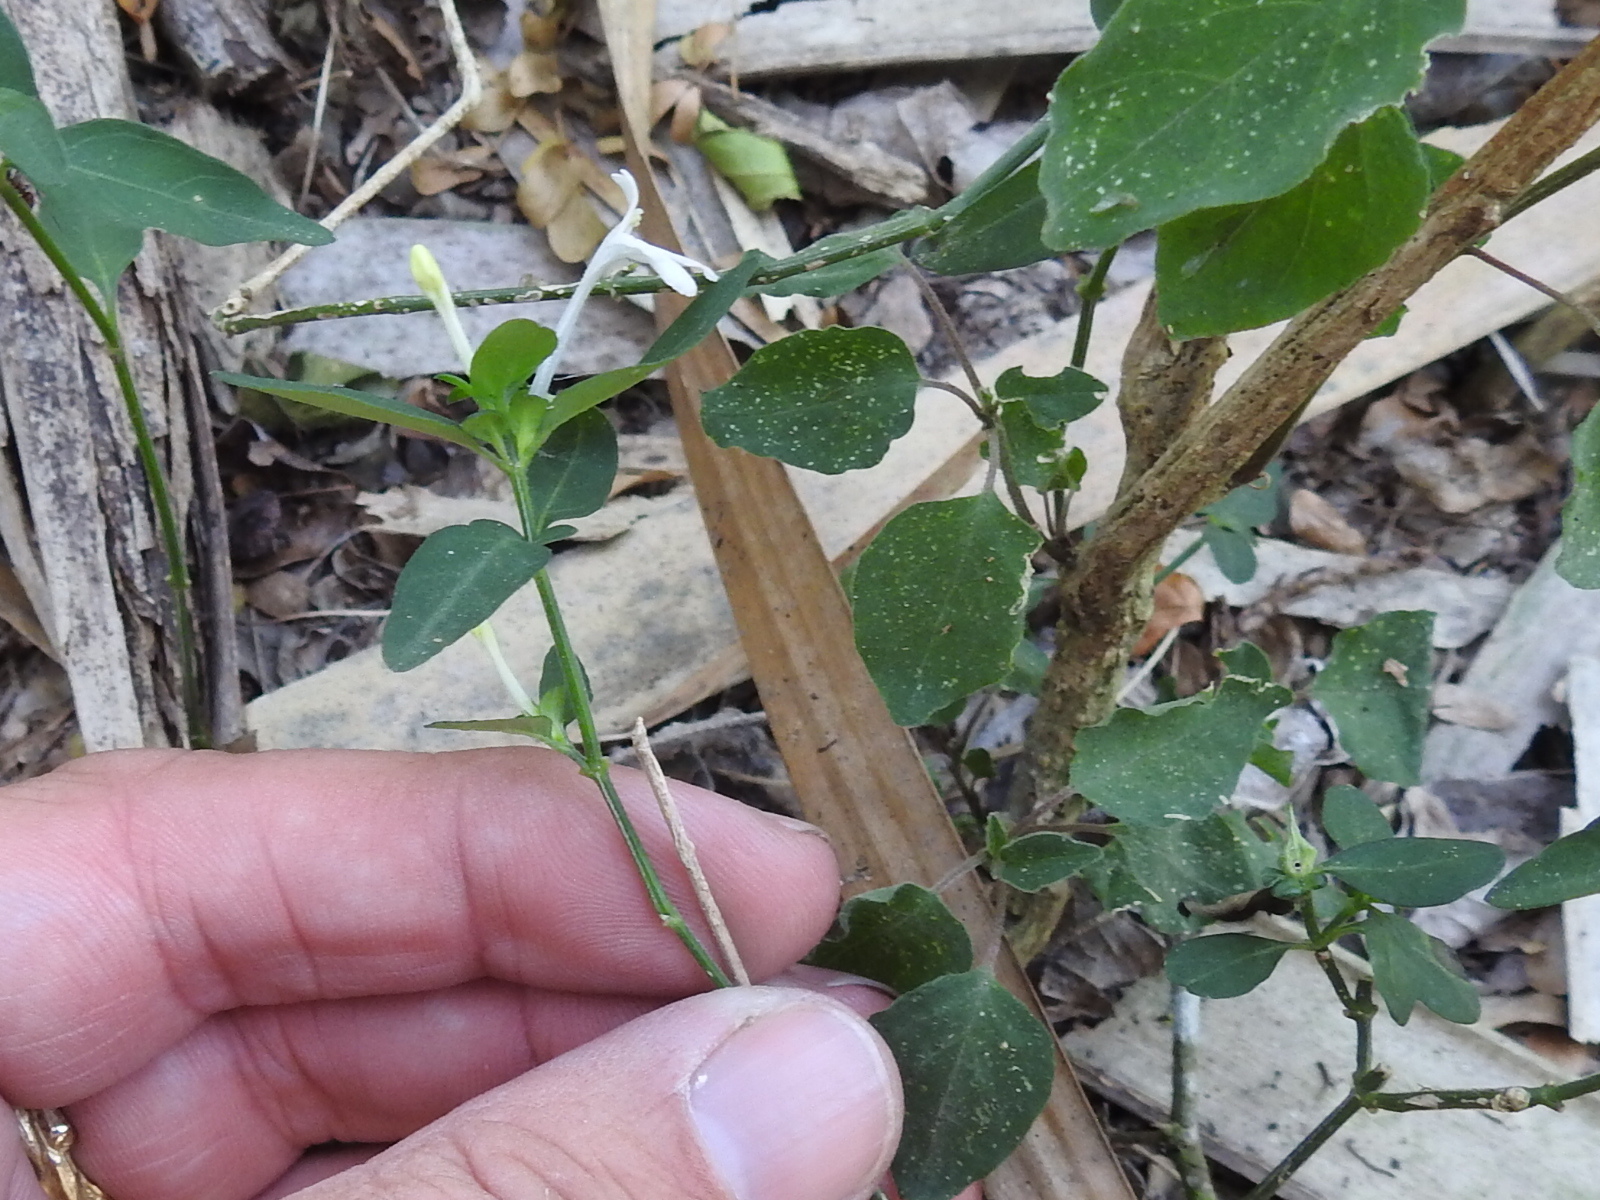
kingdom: Plantae
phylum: Tracheophyta
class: Magnoliopsida
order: Lamiales
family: Acanthaceae
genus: Justicia
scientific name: Justicia turneri
